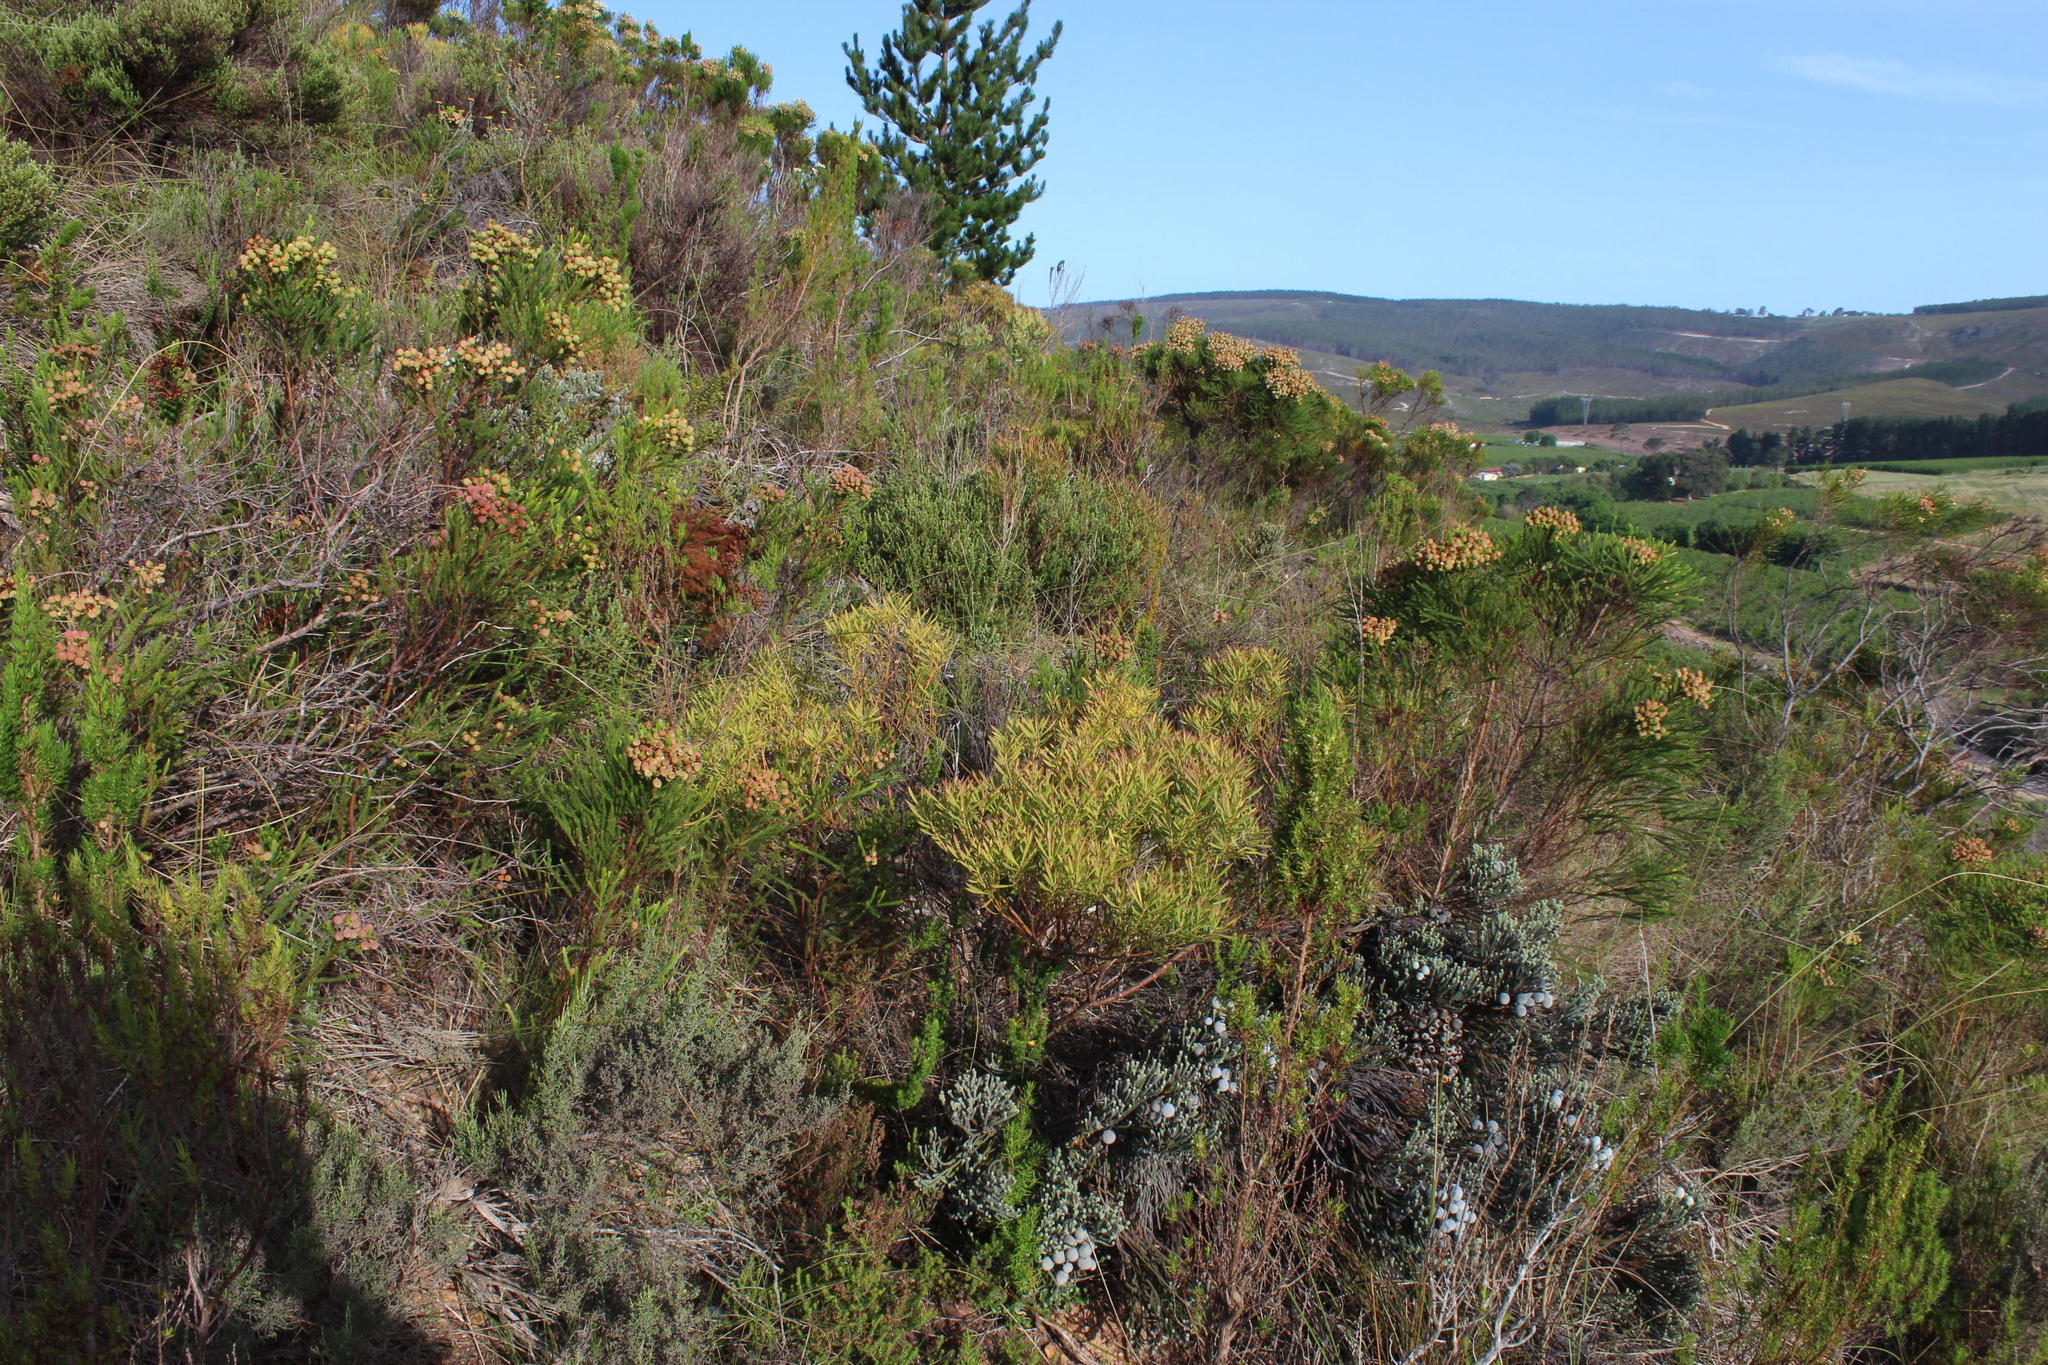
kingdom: Plantae
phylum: Tracheophyta
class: Magnoliopsida
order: Proteales
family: Proteaceae
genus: Leucadendron
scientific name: Leucadendron salignum
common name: Common sunshine conebush
